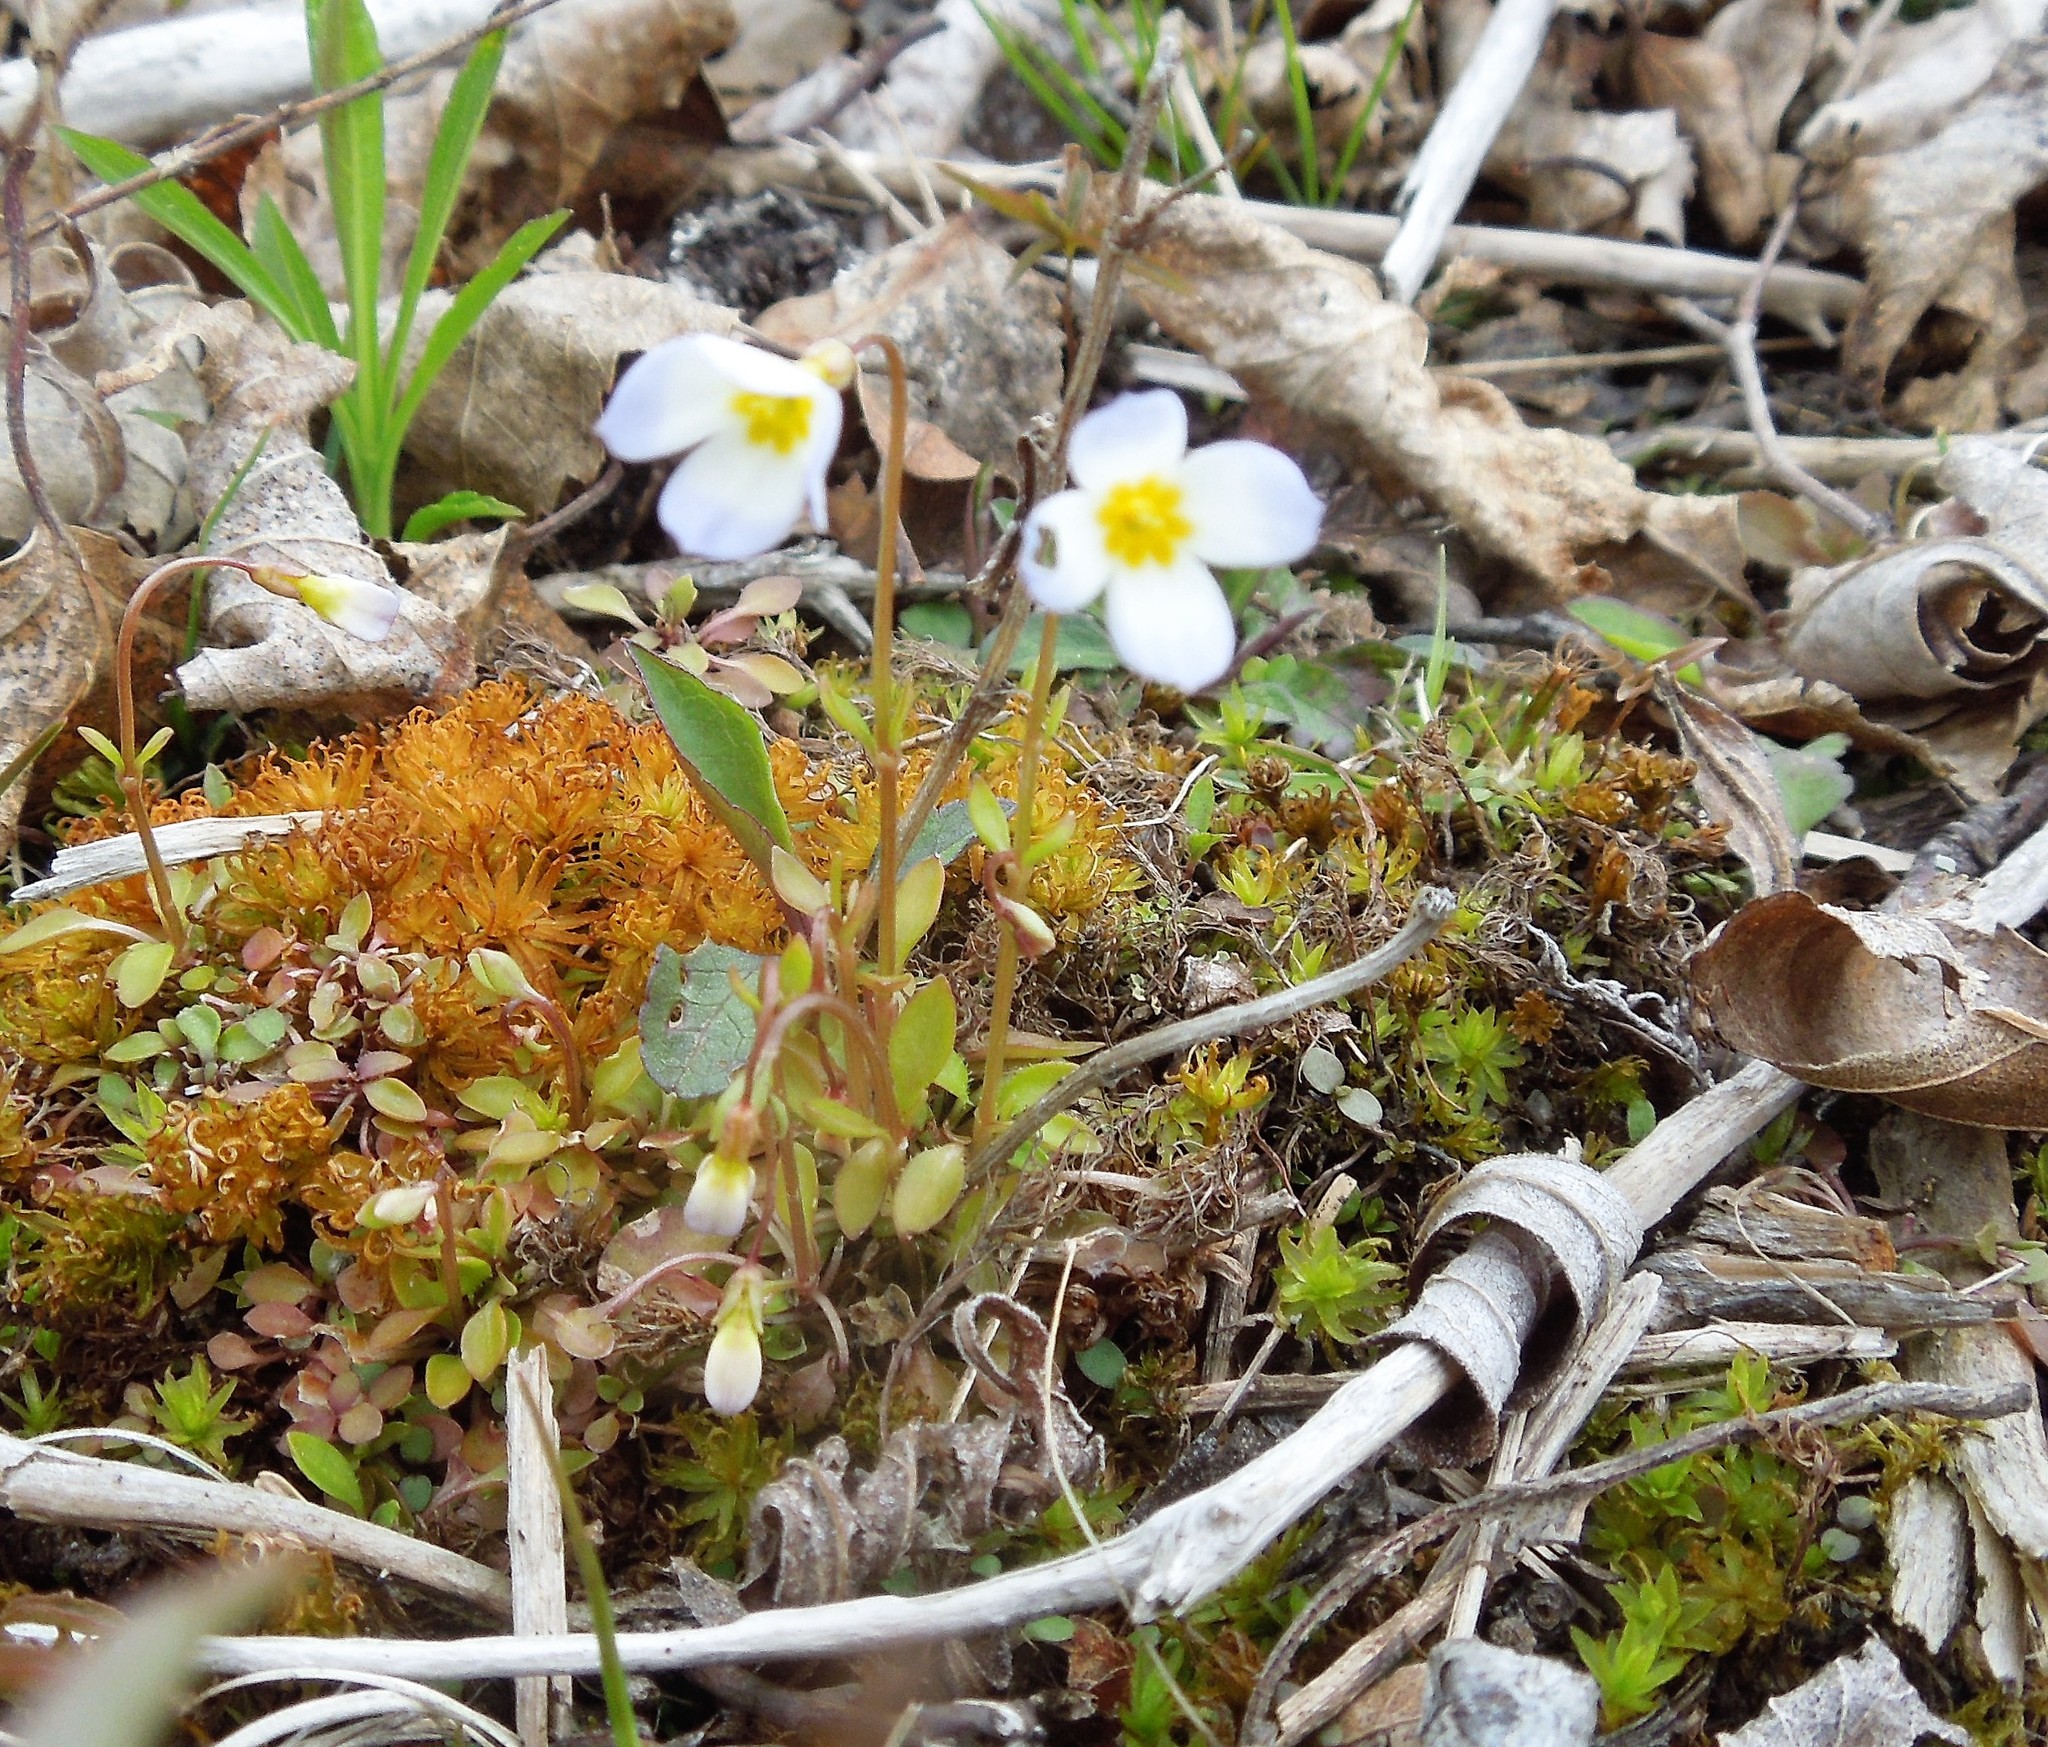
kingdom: Plantae
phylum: Tracheophyta
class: Magnoliopsida
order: Gentianales
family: Rubiaceae
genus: Houstonia
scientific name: Houstonia caerulea
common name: Bluets
